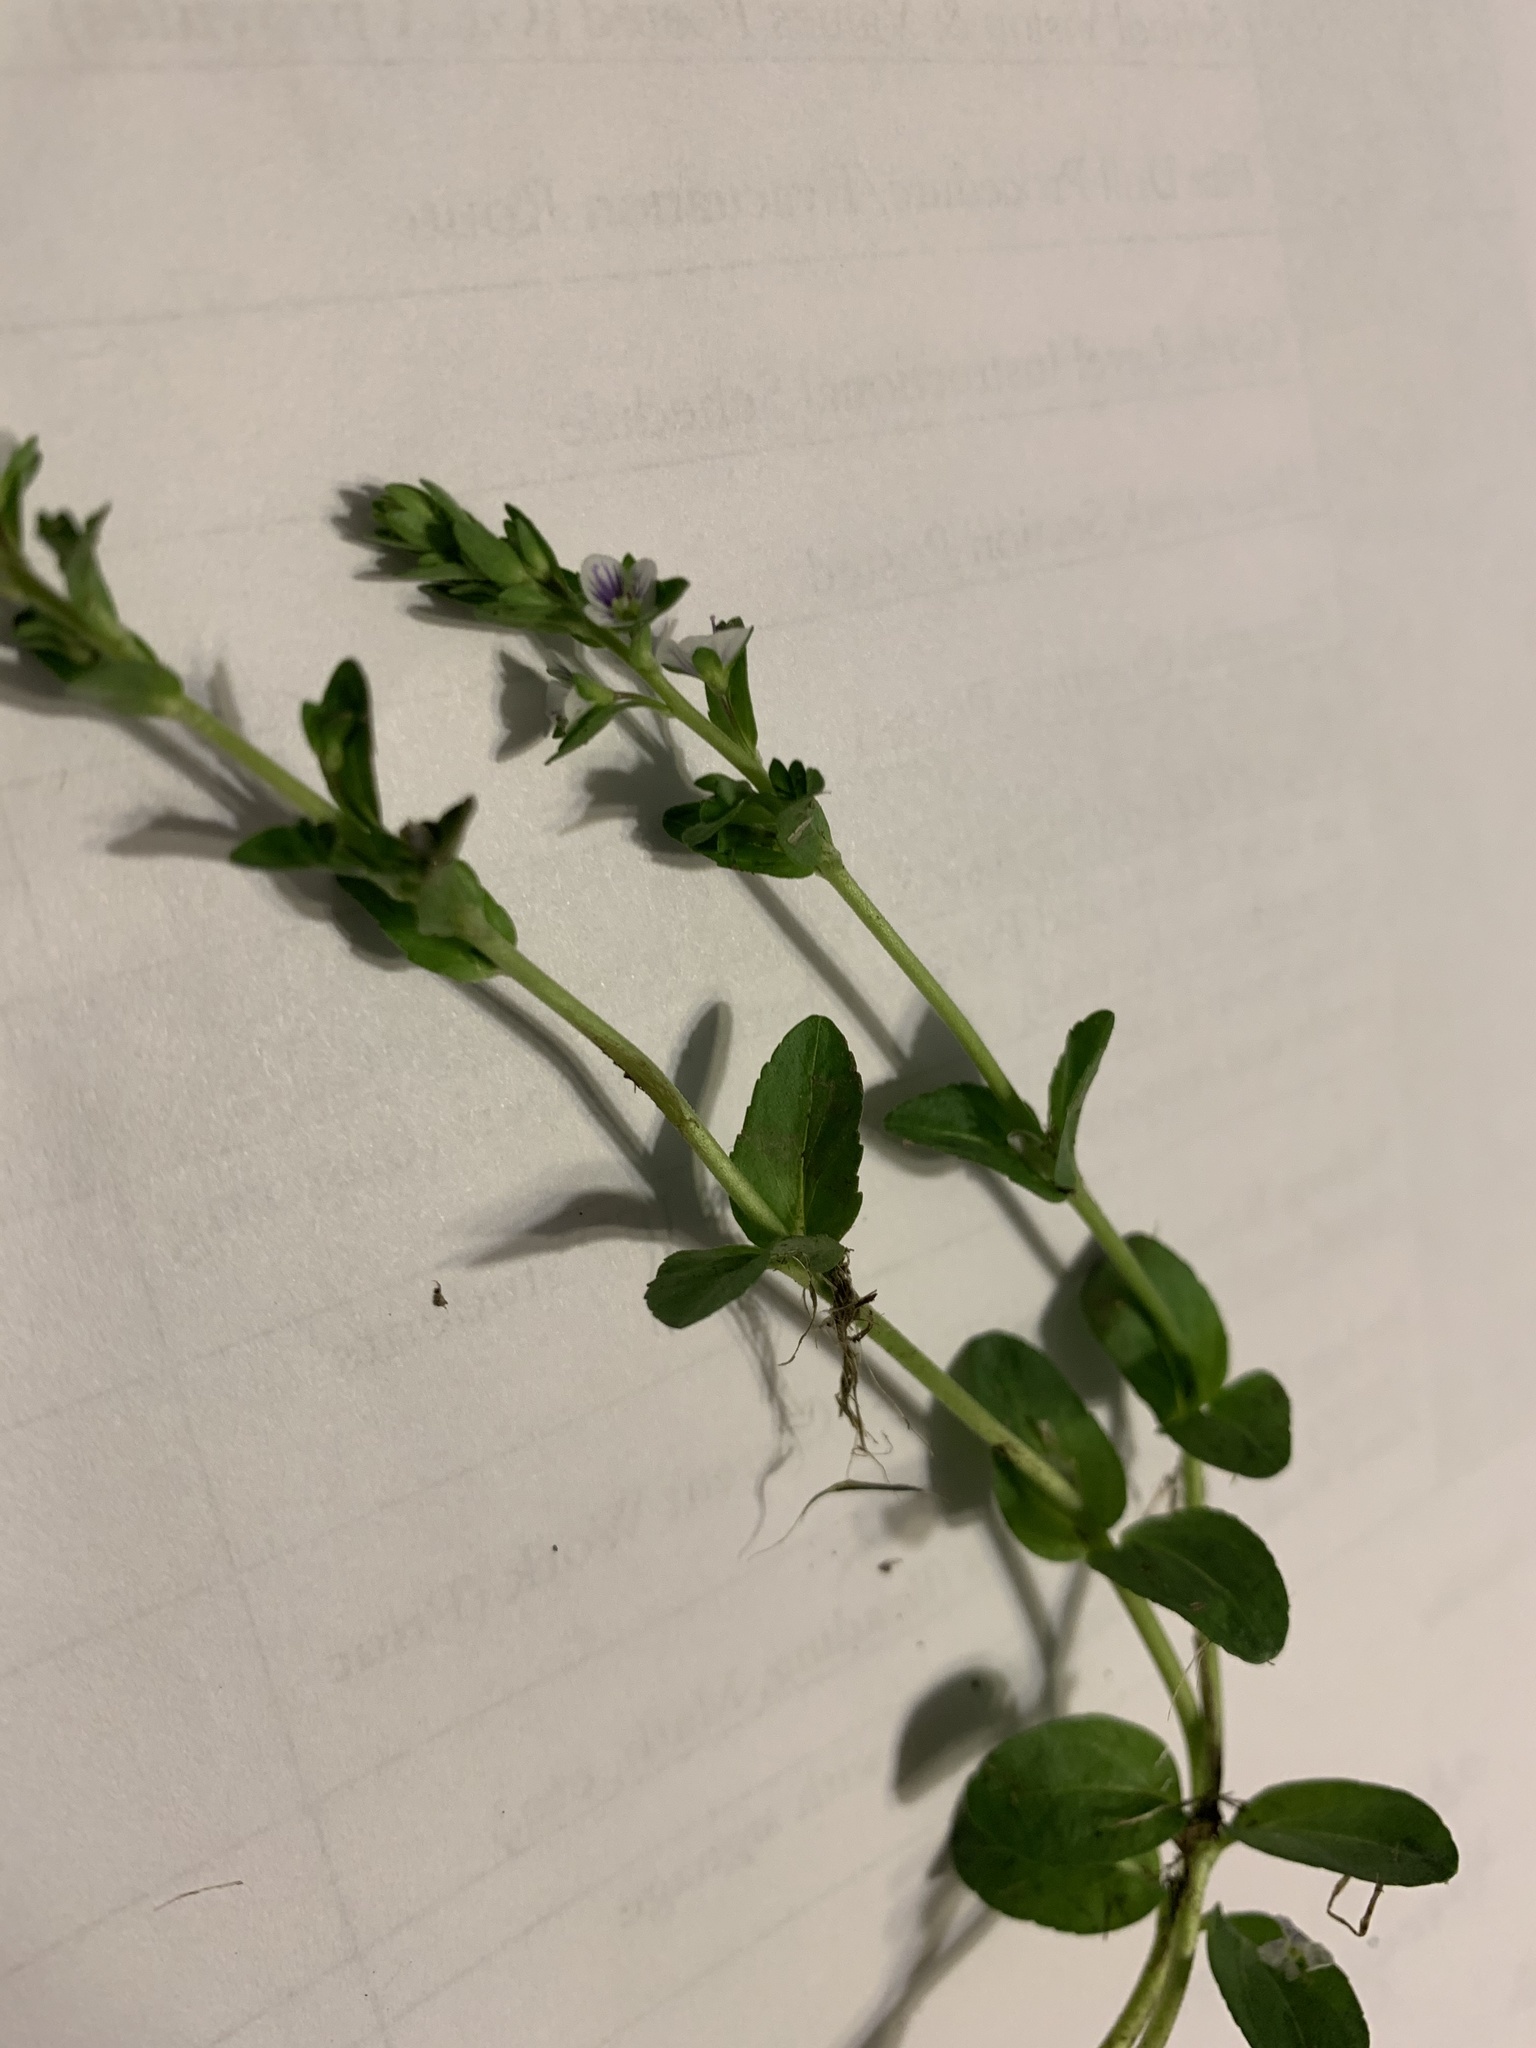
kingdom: Plantae
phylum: Tracheophyta
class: Magnoliopsida
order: Lamiales
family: Plantaginaceae
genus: Veronica
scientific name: Veronica serpyllifolia
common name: Thyme-leaved speedwell
